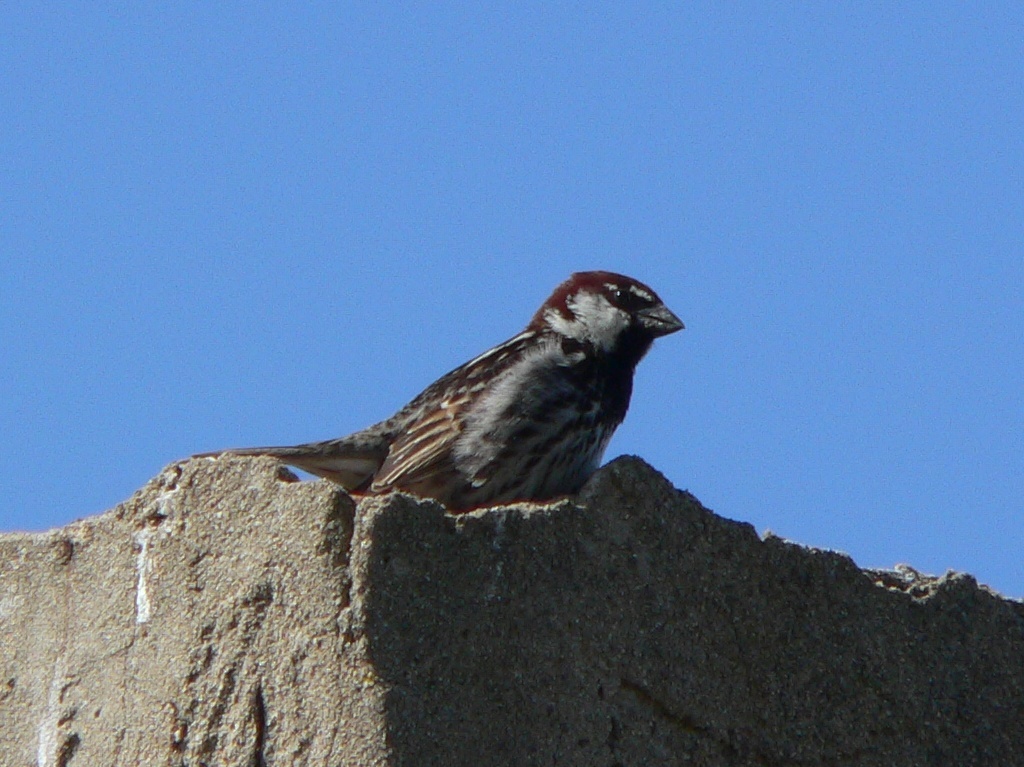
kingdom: Animalia
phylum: Chordata
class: Aves
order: Passeriformes
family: Passeridae
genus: Passer
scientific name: Passer hispaniolensis
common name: Spanish sparrow
